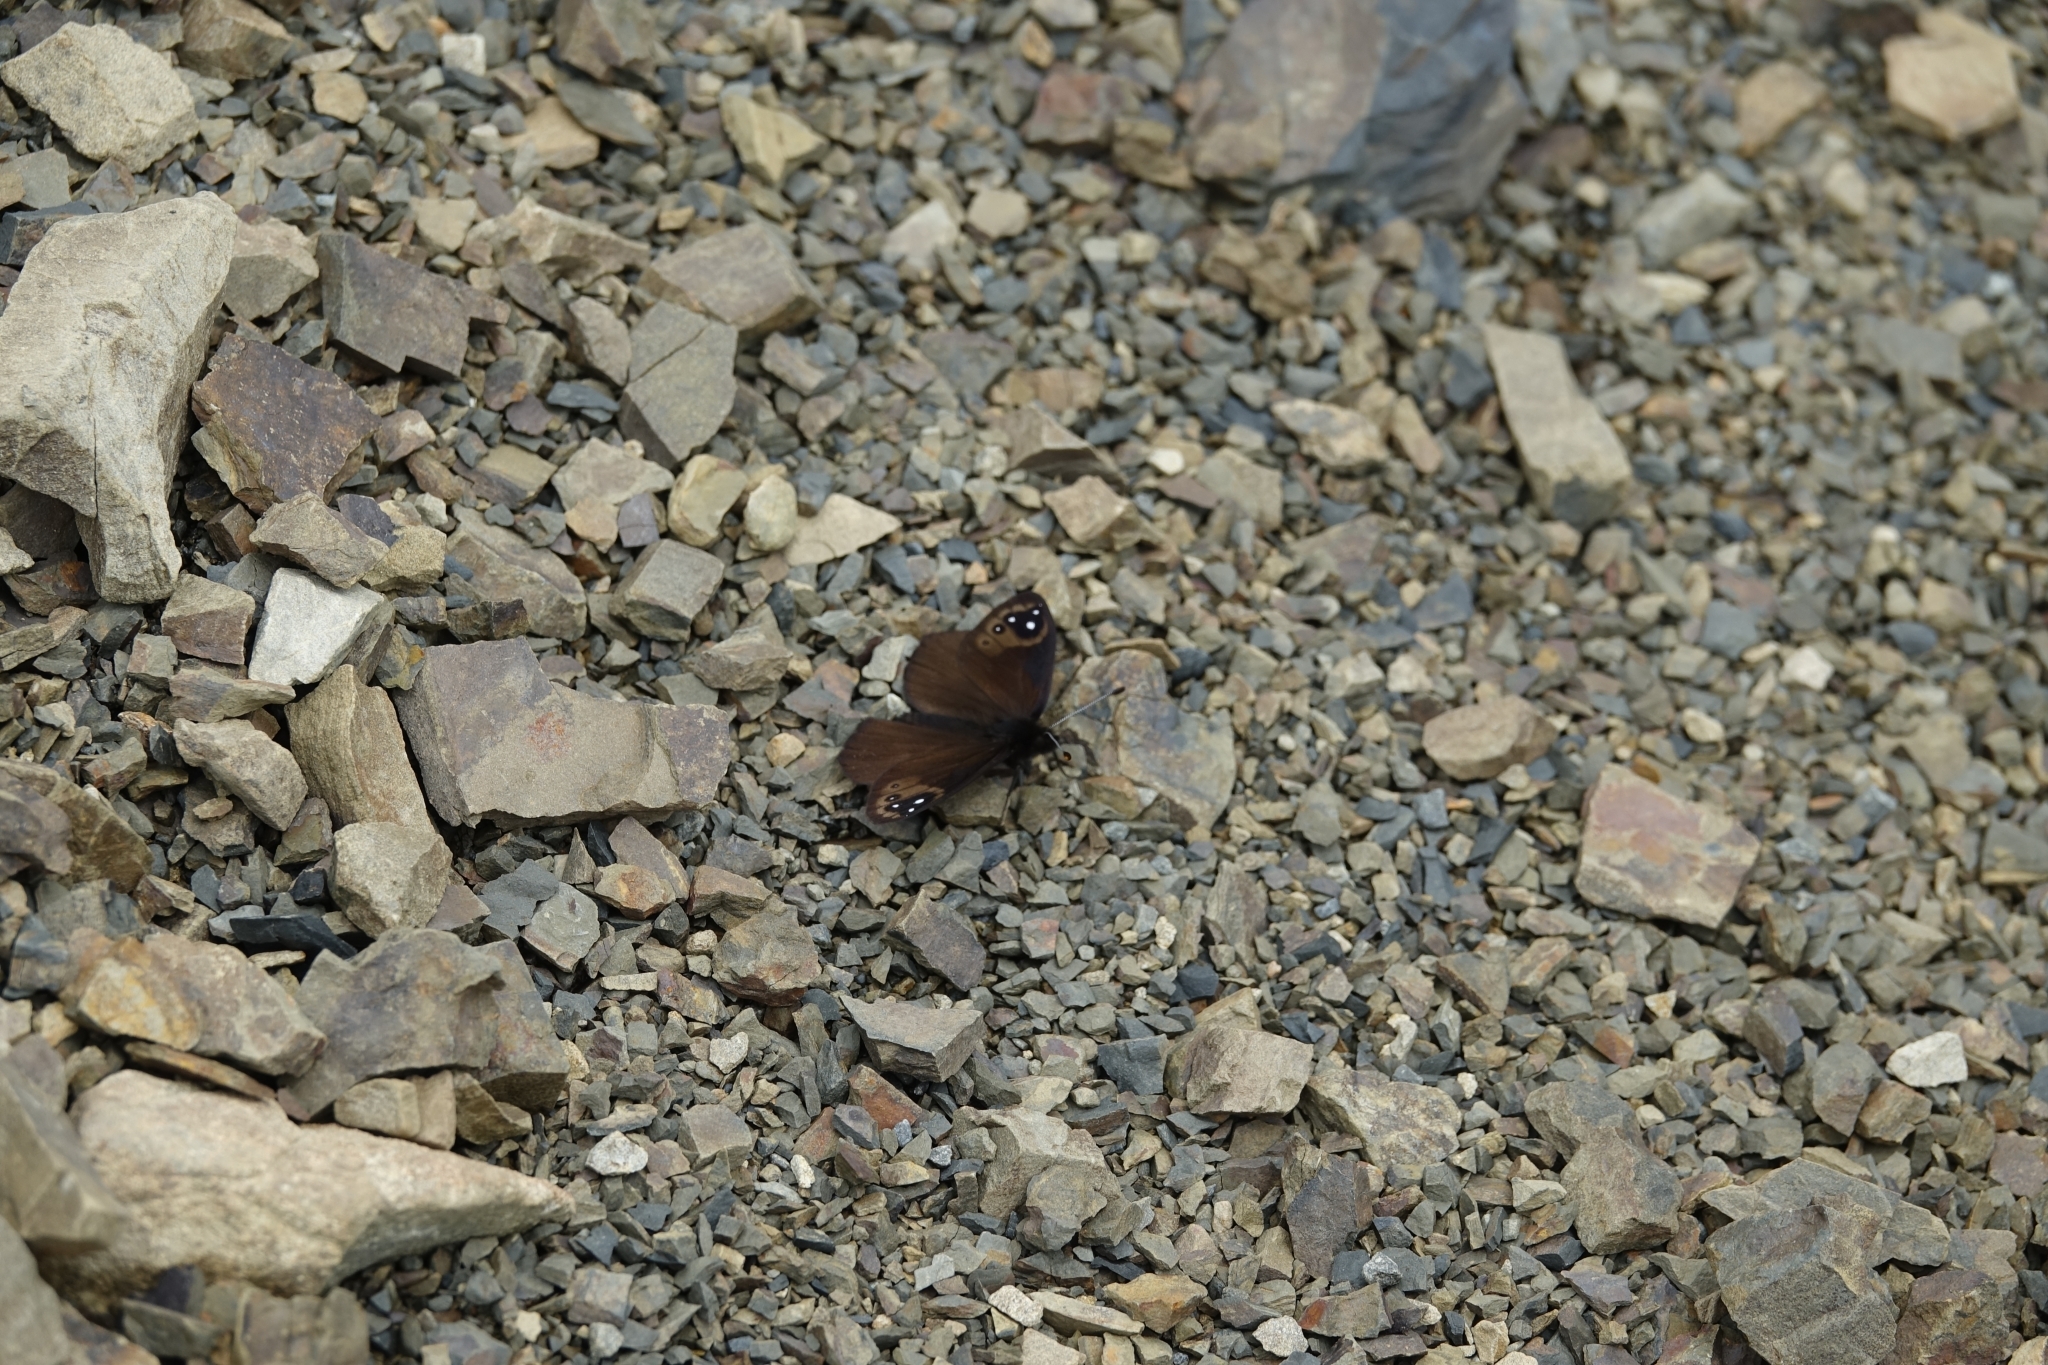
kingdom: Animalia
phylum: Arthropoda
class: Insecta
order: Lepidoptera
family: Nymphalidae
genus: Erebia
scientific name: Erebia Percnodaimon merula
